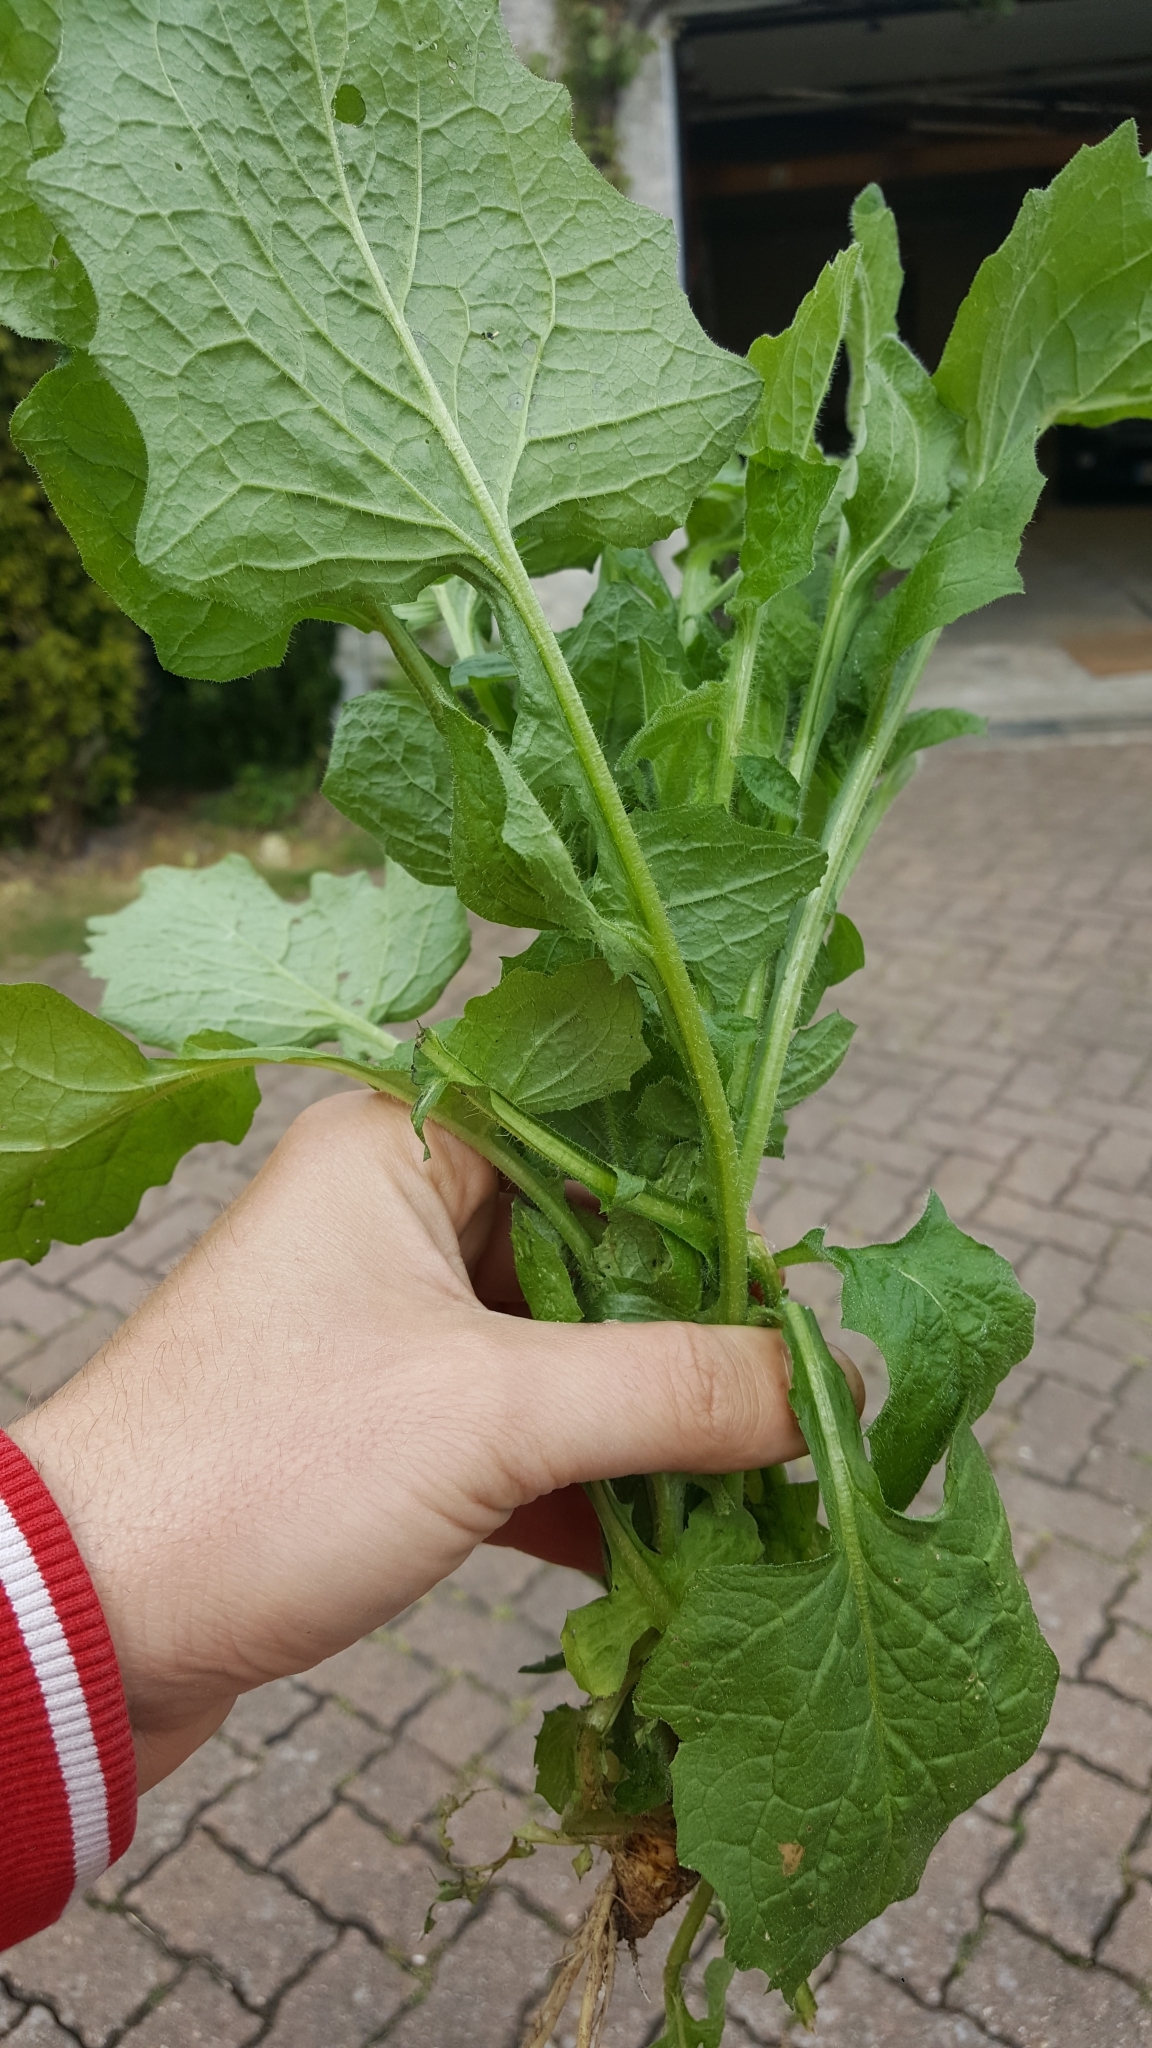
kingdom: Plantae
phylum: Tracheophyta
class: Magnoliopsida
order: Asterales
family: Asteraceae
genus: Lapsana
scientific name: Lapsana communis
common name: Nipplewort
